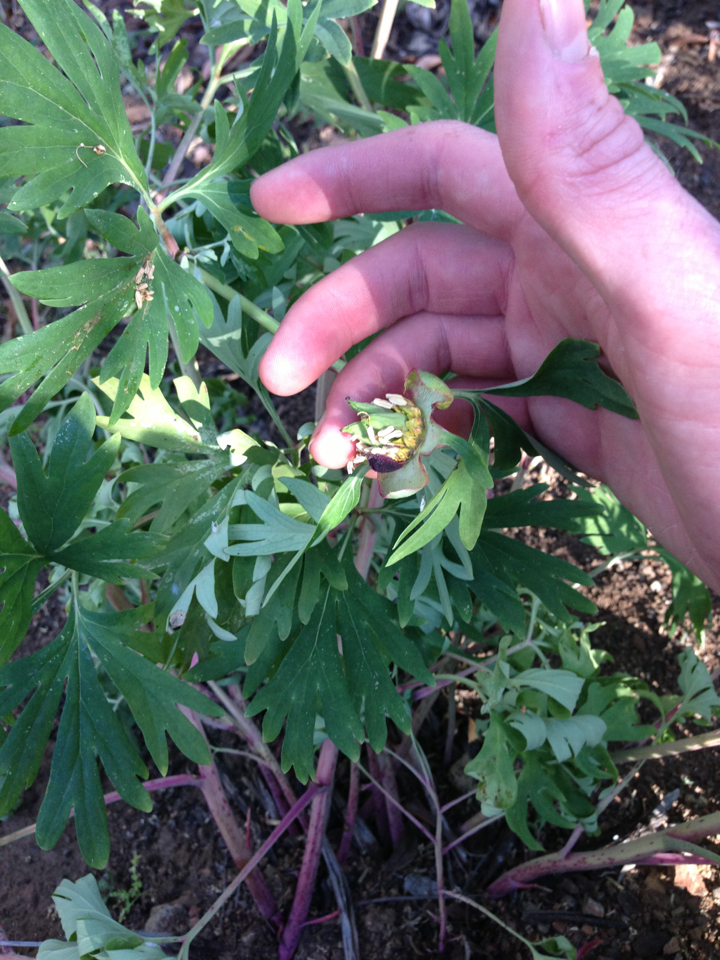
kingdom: Plantae
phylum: Tracheophyta
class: Magnoliopsida
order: Saxifragales
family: Paeoniaceae
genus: Paeonia
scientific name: Paeonia californica
